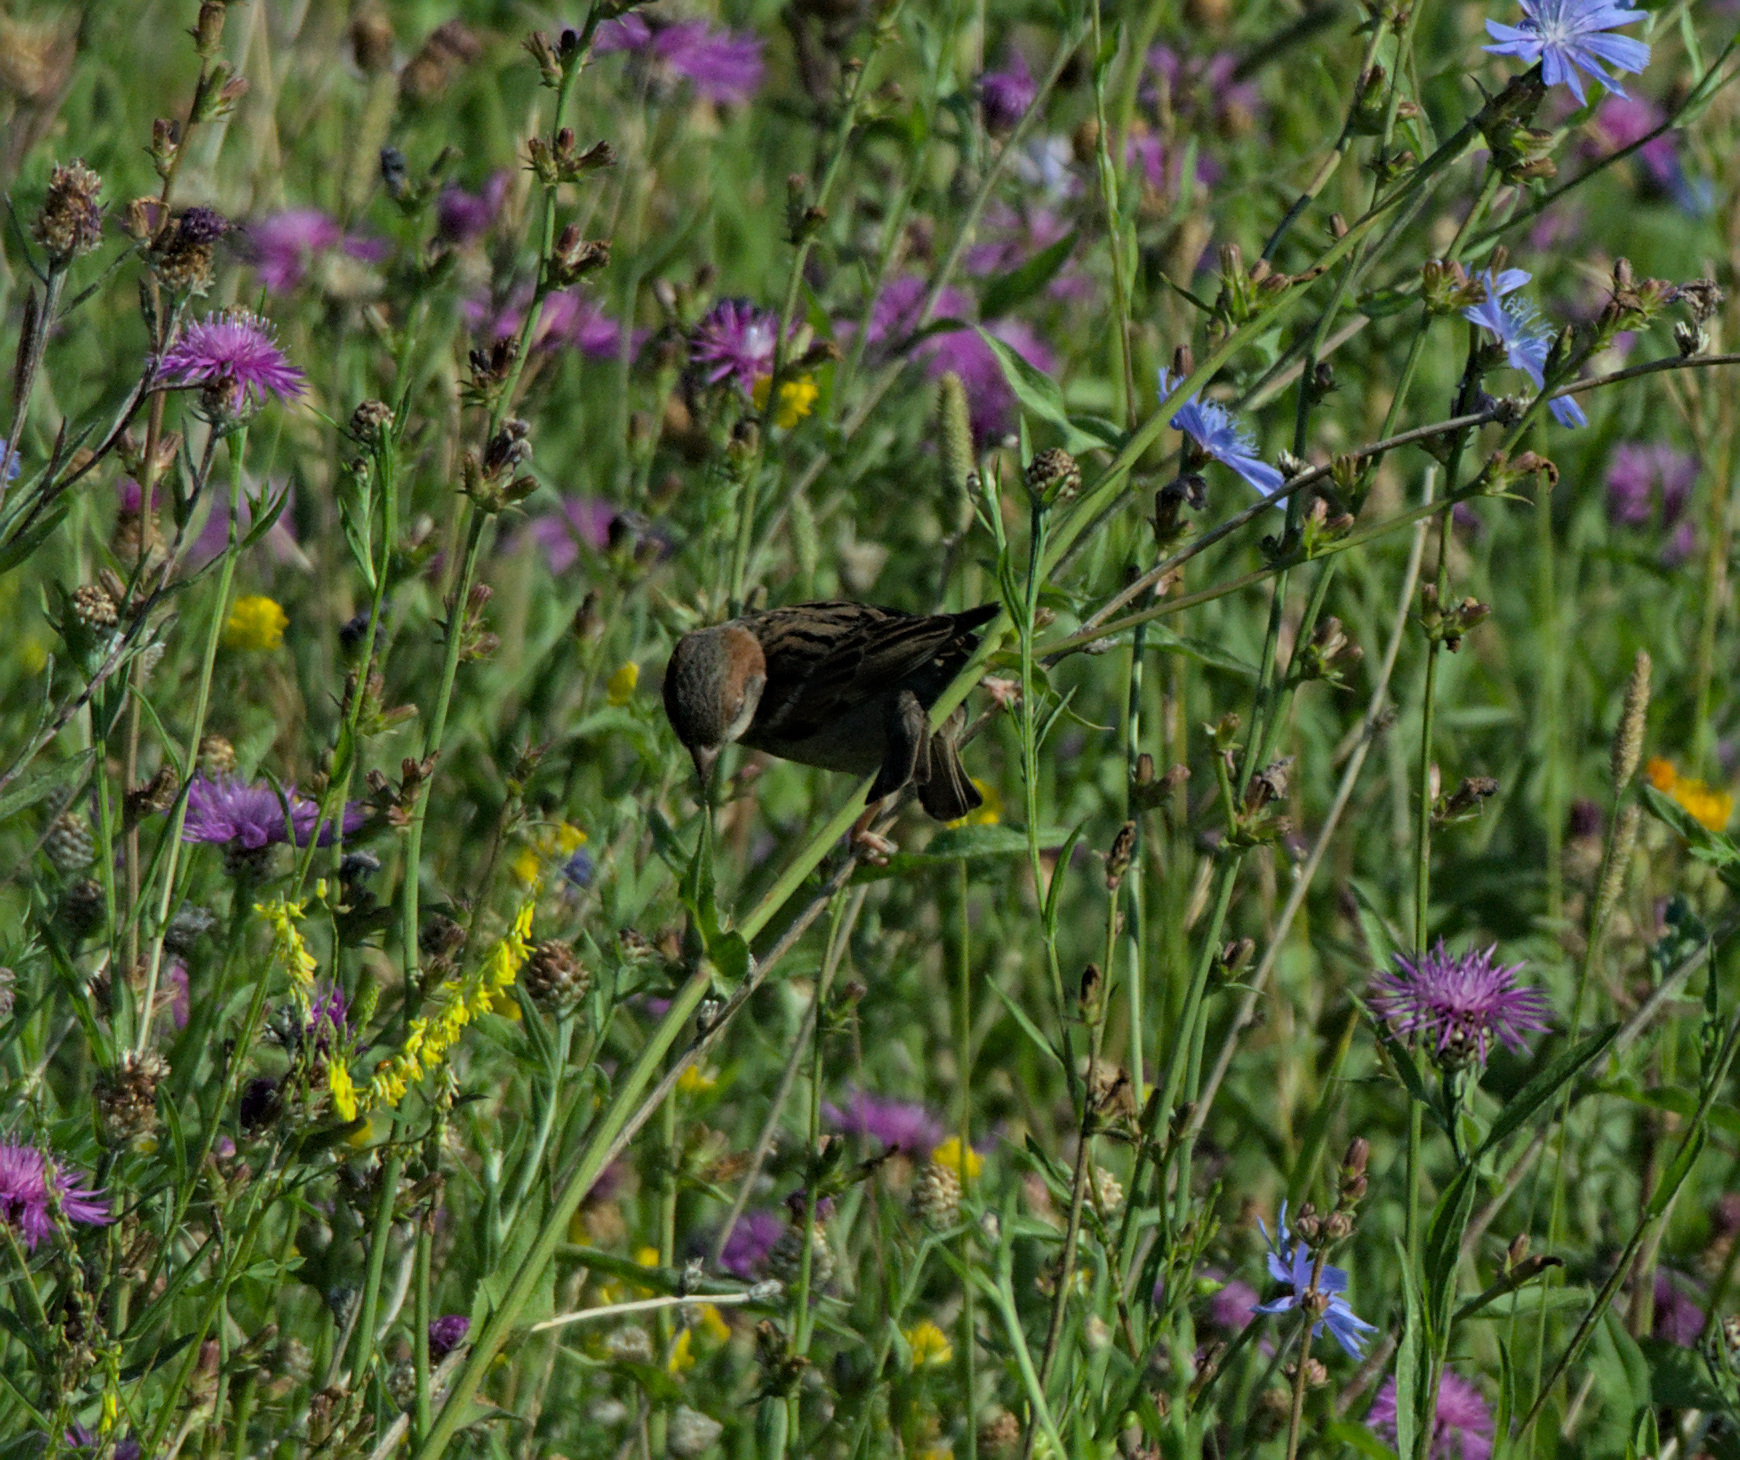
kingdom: Animalia
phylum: Chordata
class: Aves
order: Passeriformes
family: Passeridae
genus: Passer
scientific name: Passer montanus
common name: Eurasian tree sparrow
